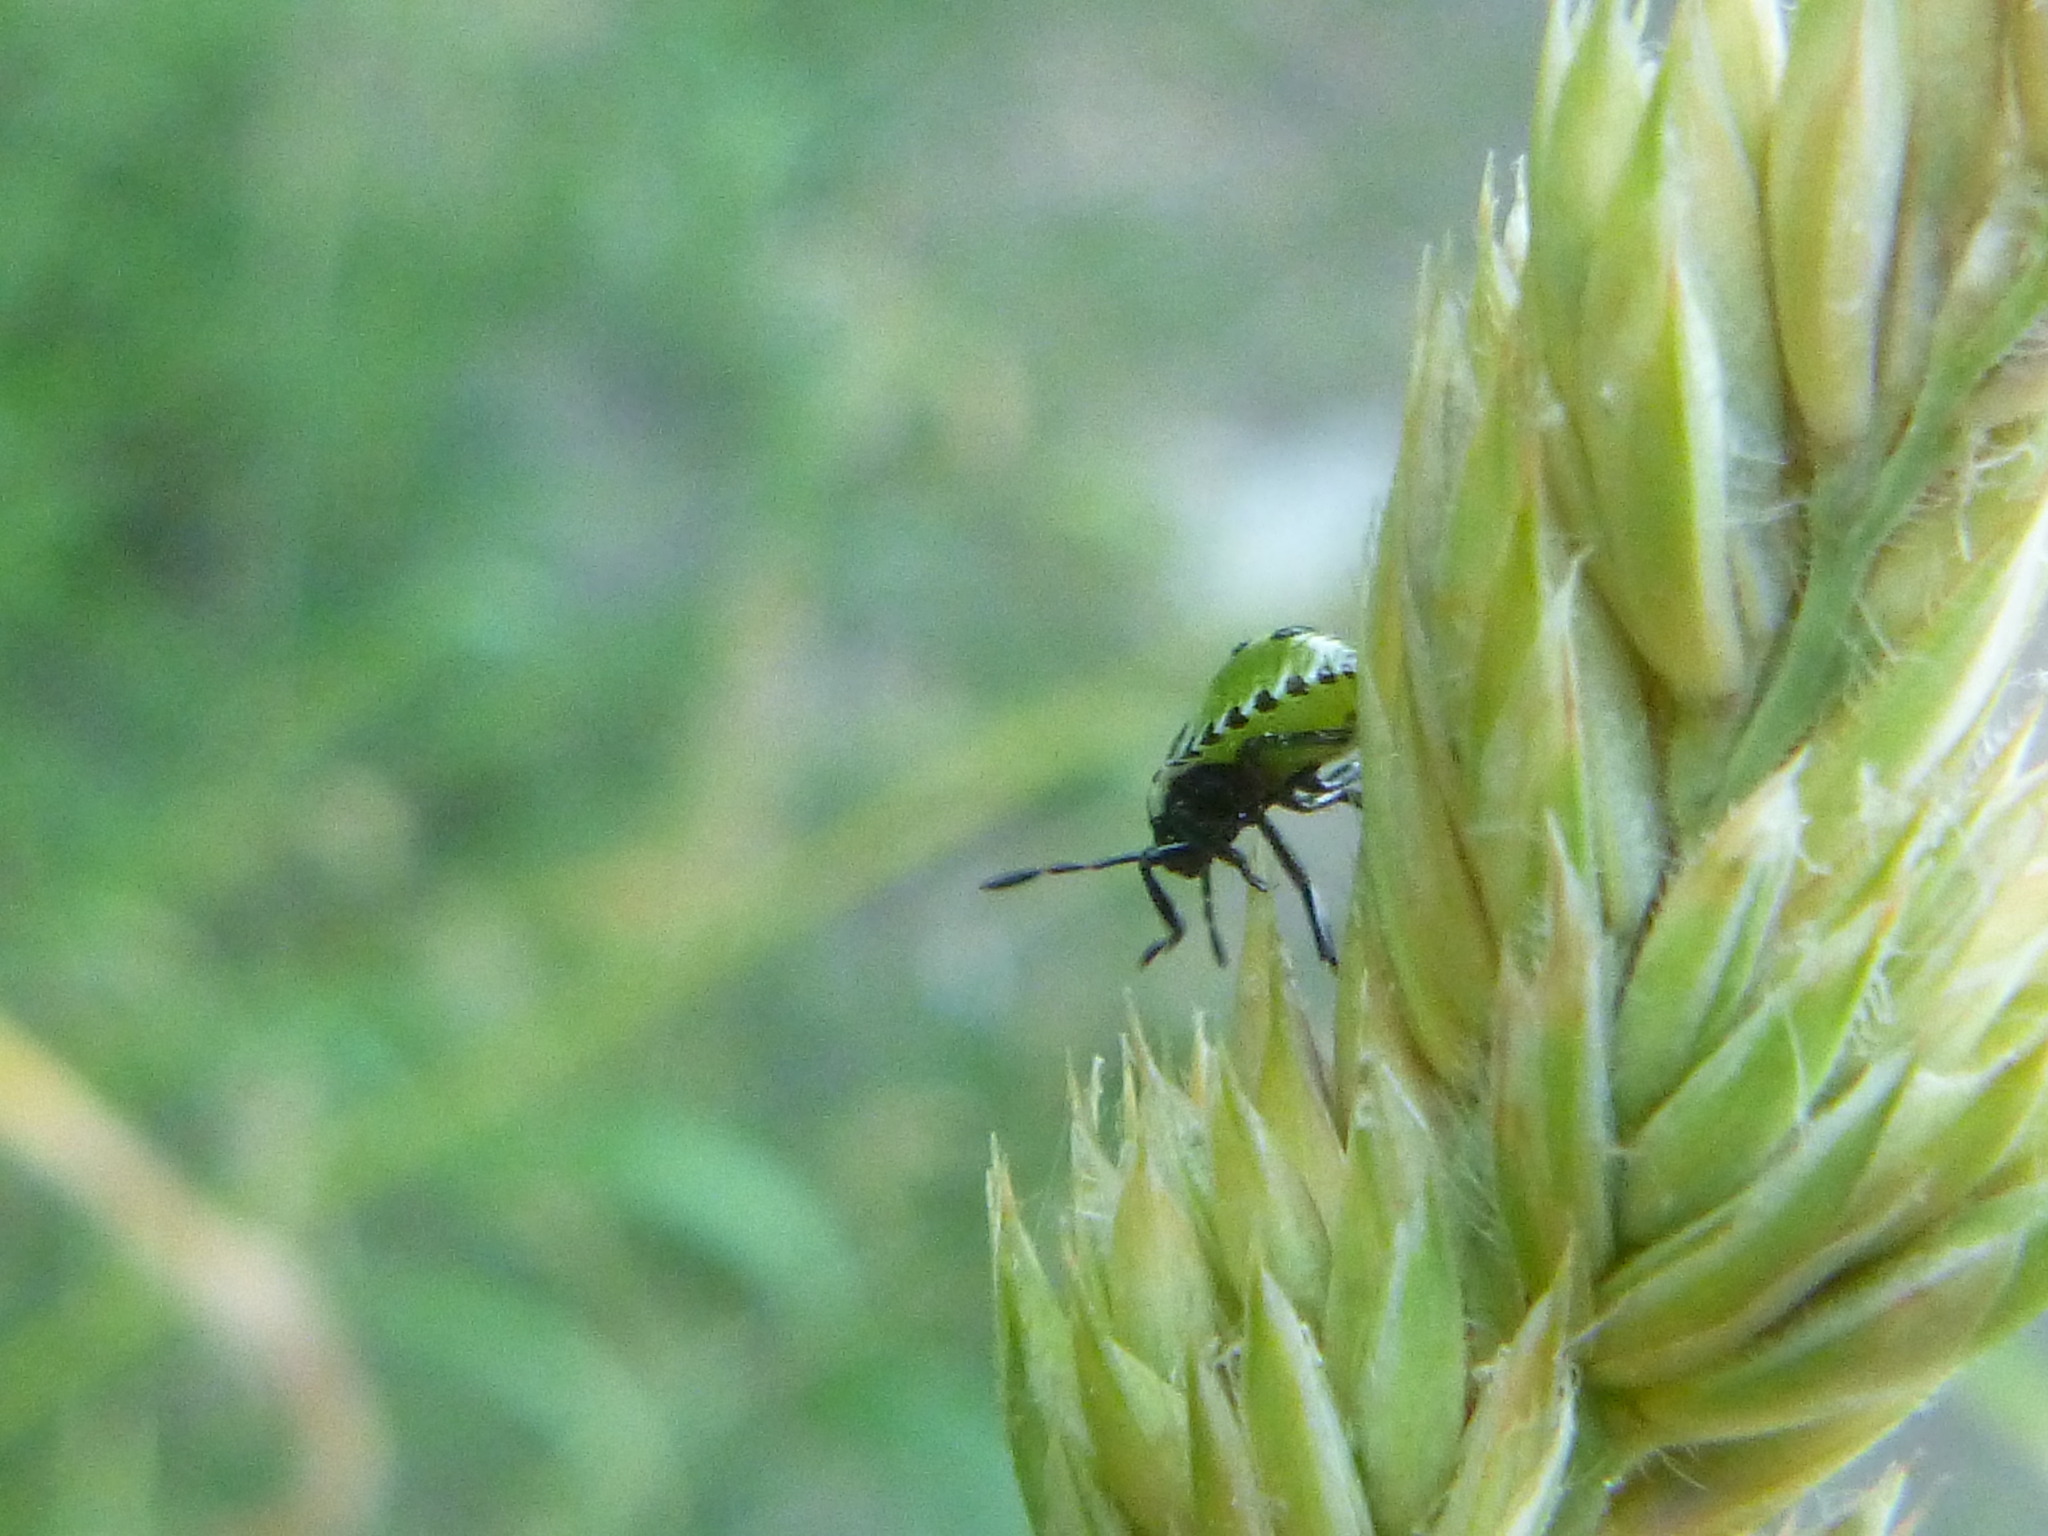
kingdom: Animalia
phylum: Arthropoda
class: Insecta
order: Hemiptera
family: Pentatomidae
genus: Palomena
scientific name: Palomena prasina
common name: Green shieldbug
